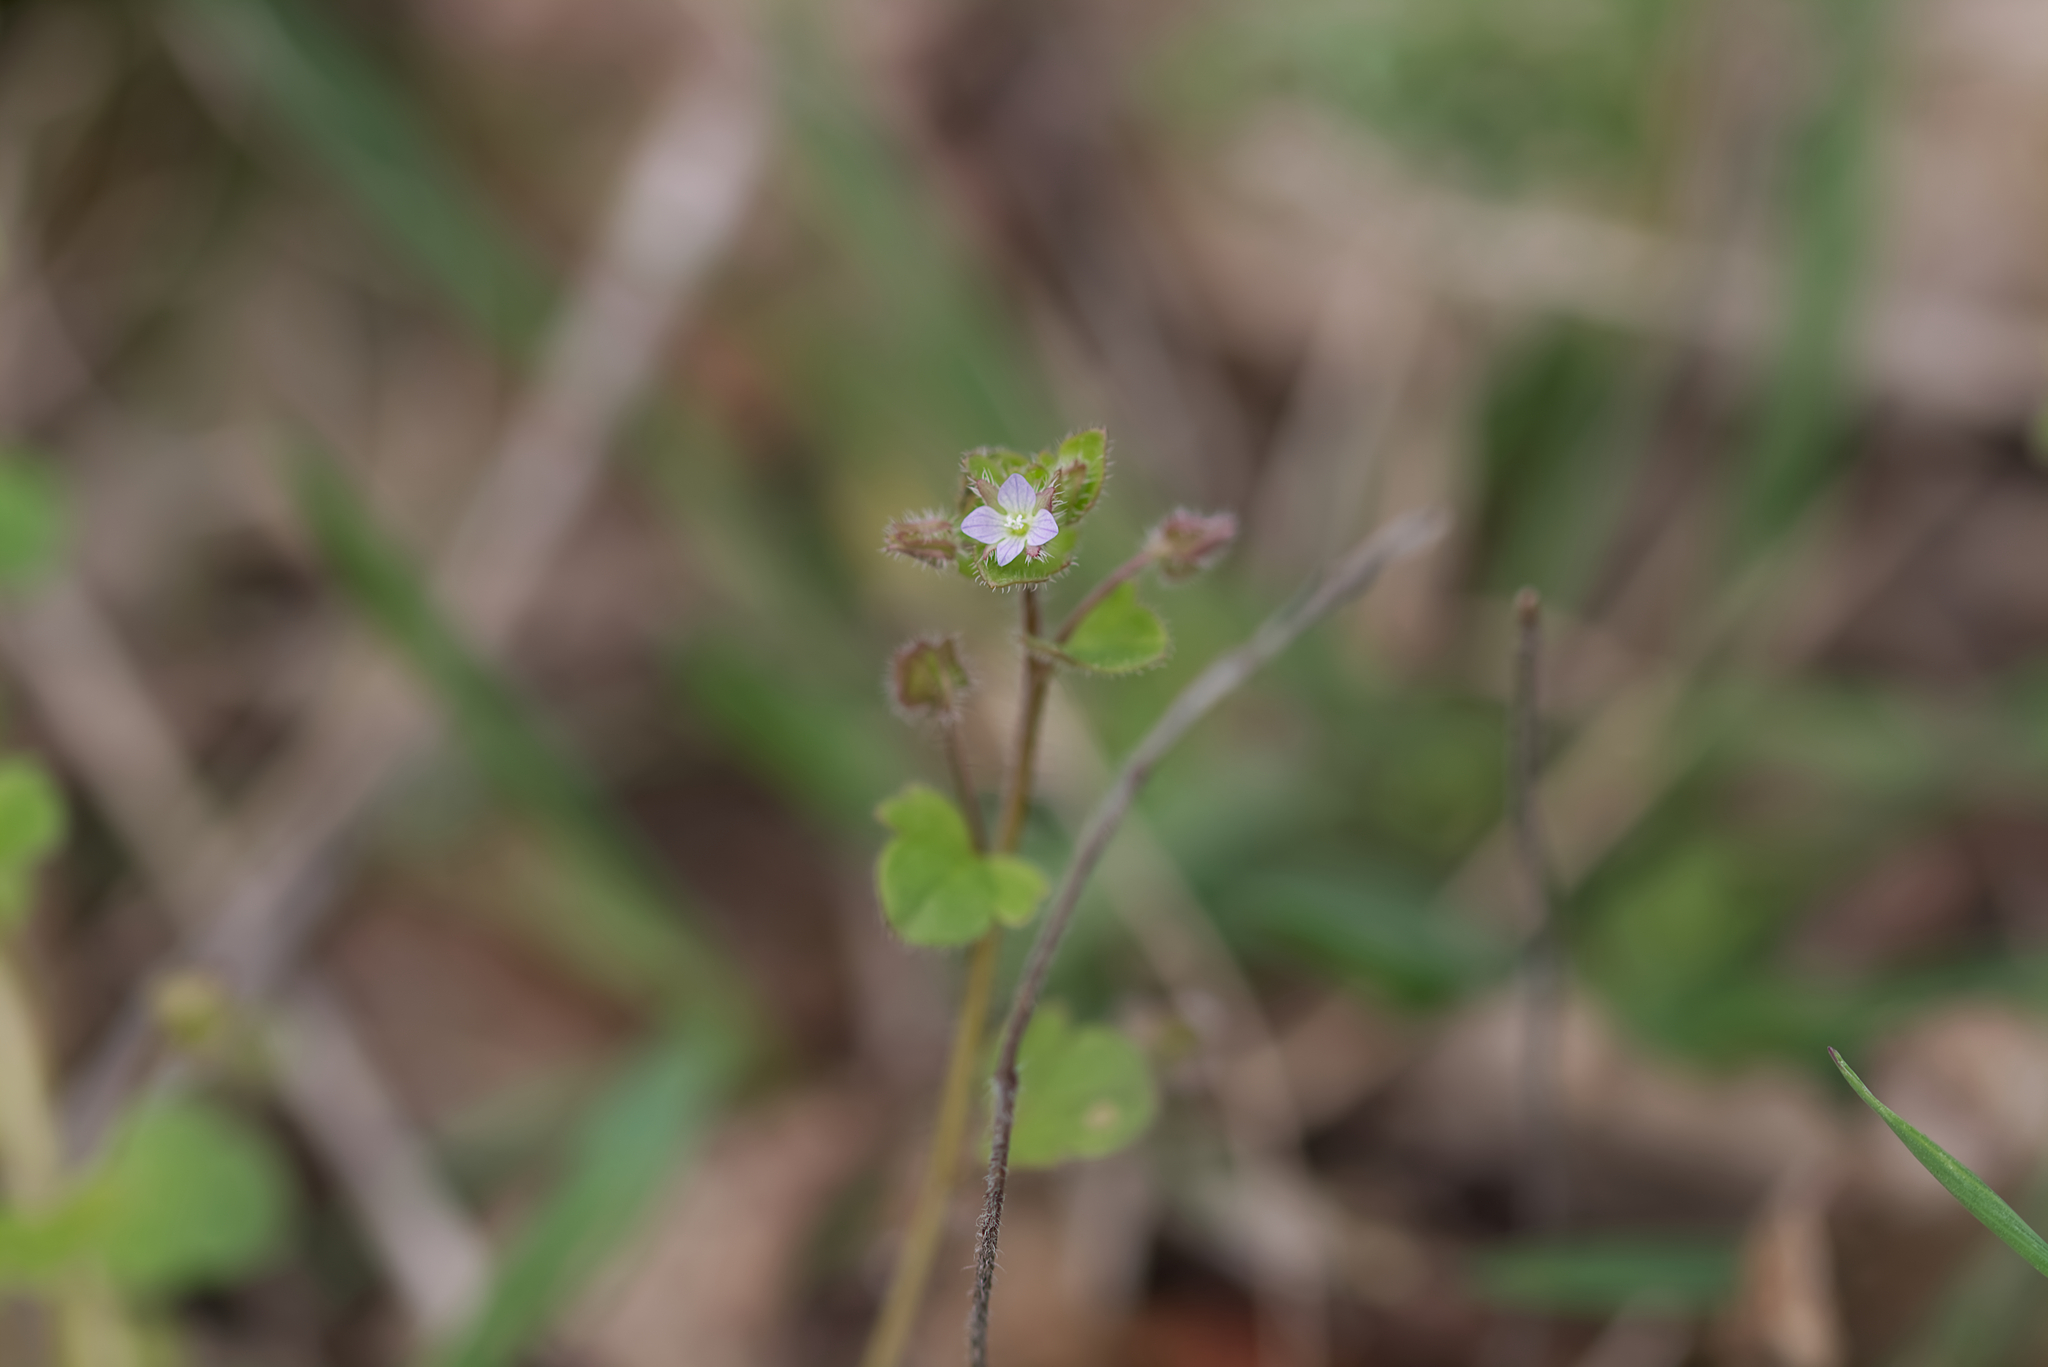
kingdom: Plantae
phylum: Tracheophyta
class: Magnoliopsida
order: Lamiales
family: Plantaginaceae
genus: Veronica
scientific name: Veronica sublobata
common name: False ivy-leaved speedwell
